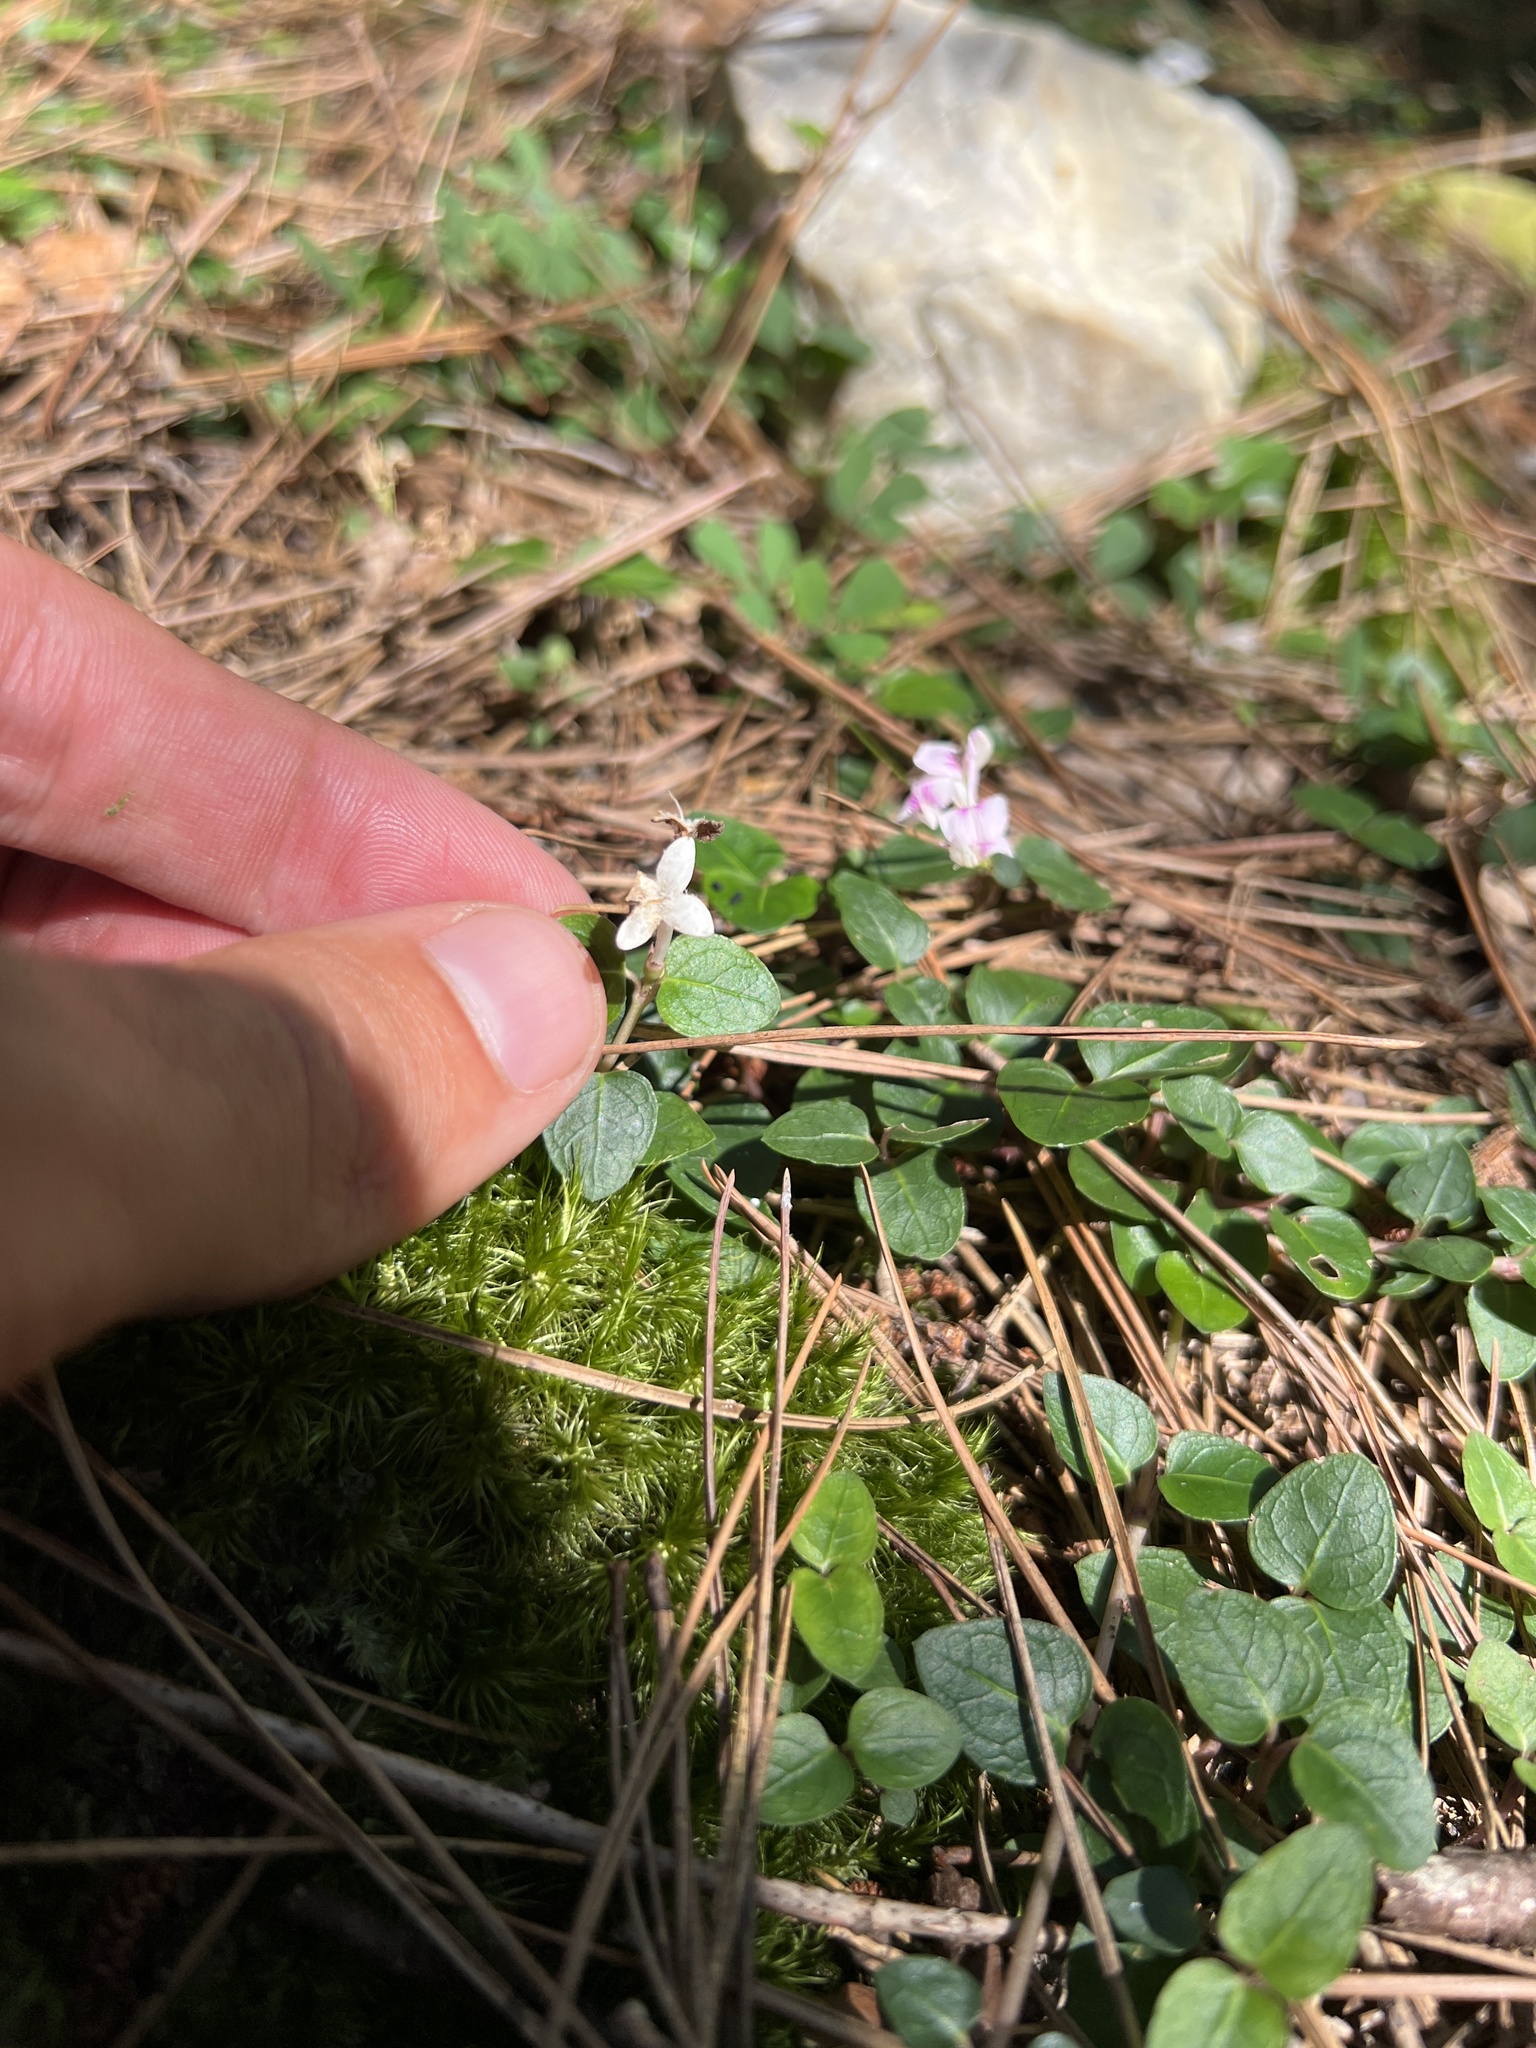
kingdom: Plantae
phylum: Tracheophyta
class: Magnoliopsida
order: Gentianales
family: Rubiaceae
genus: Mitchella
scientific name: Mitchella repens
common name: Partridge-berry
